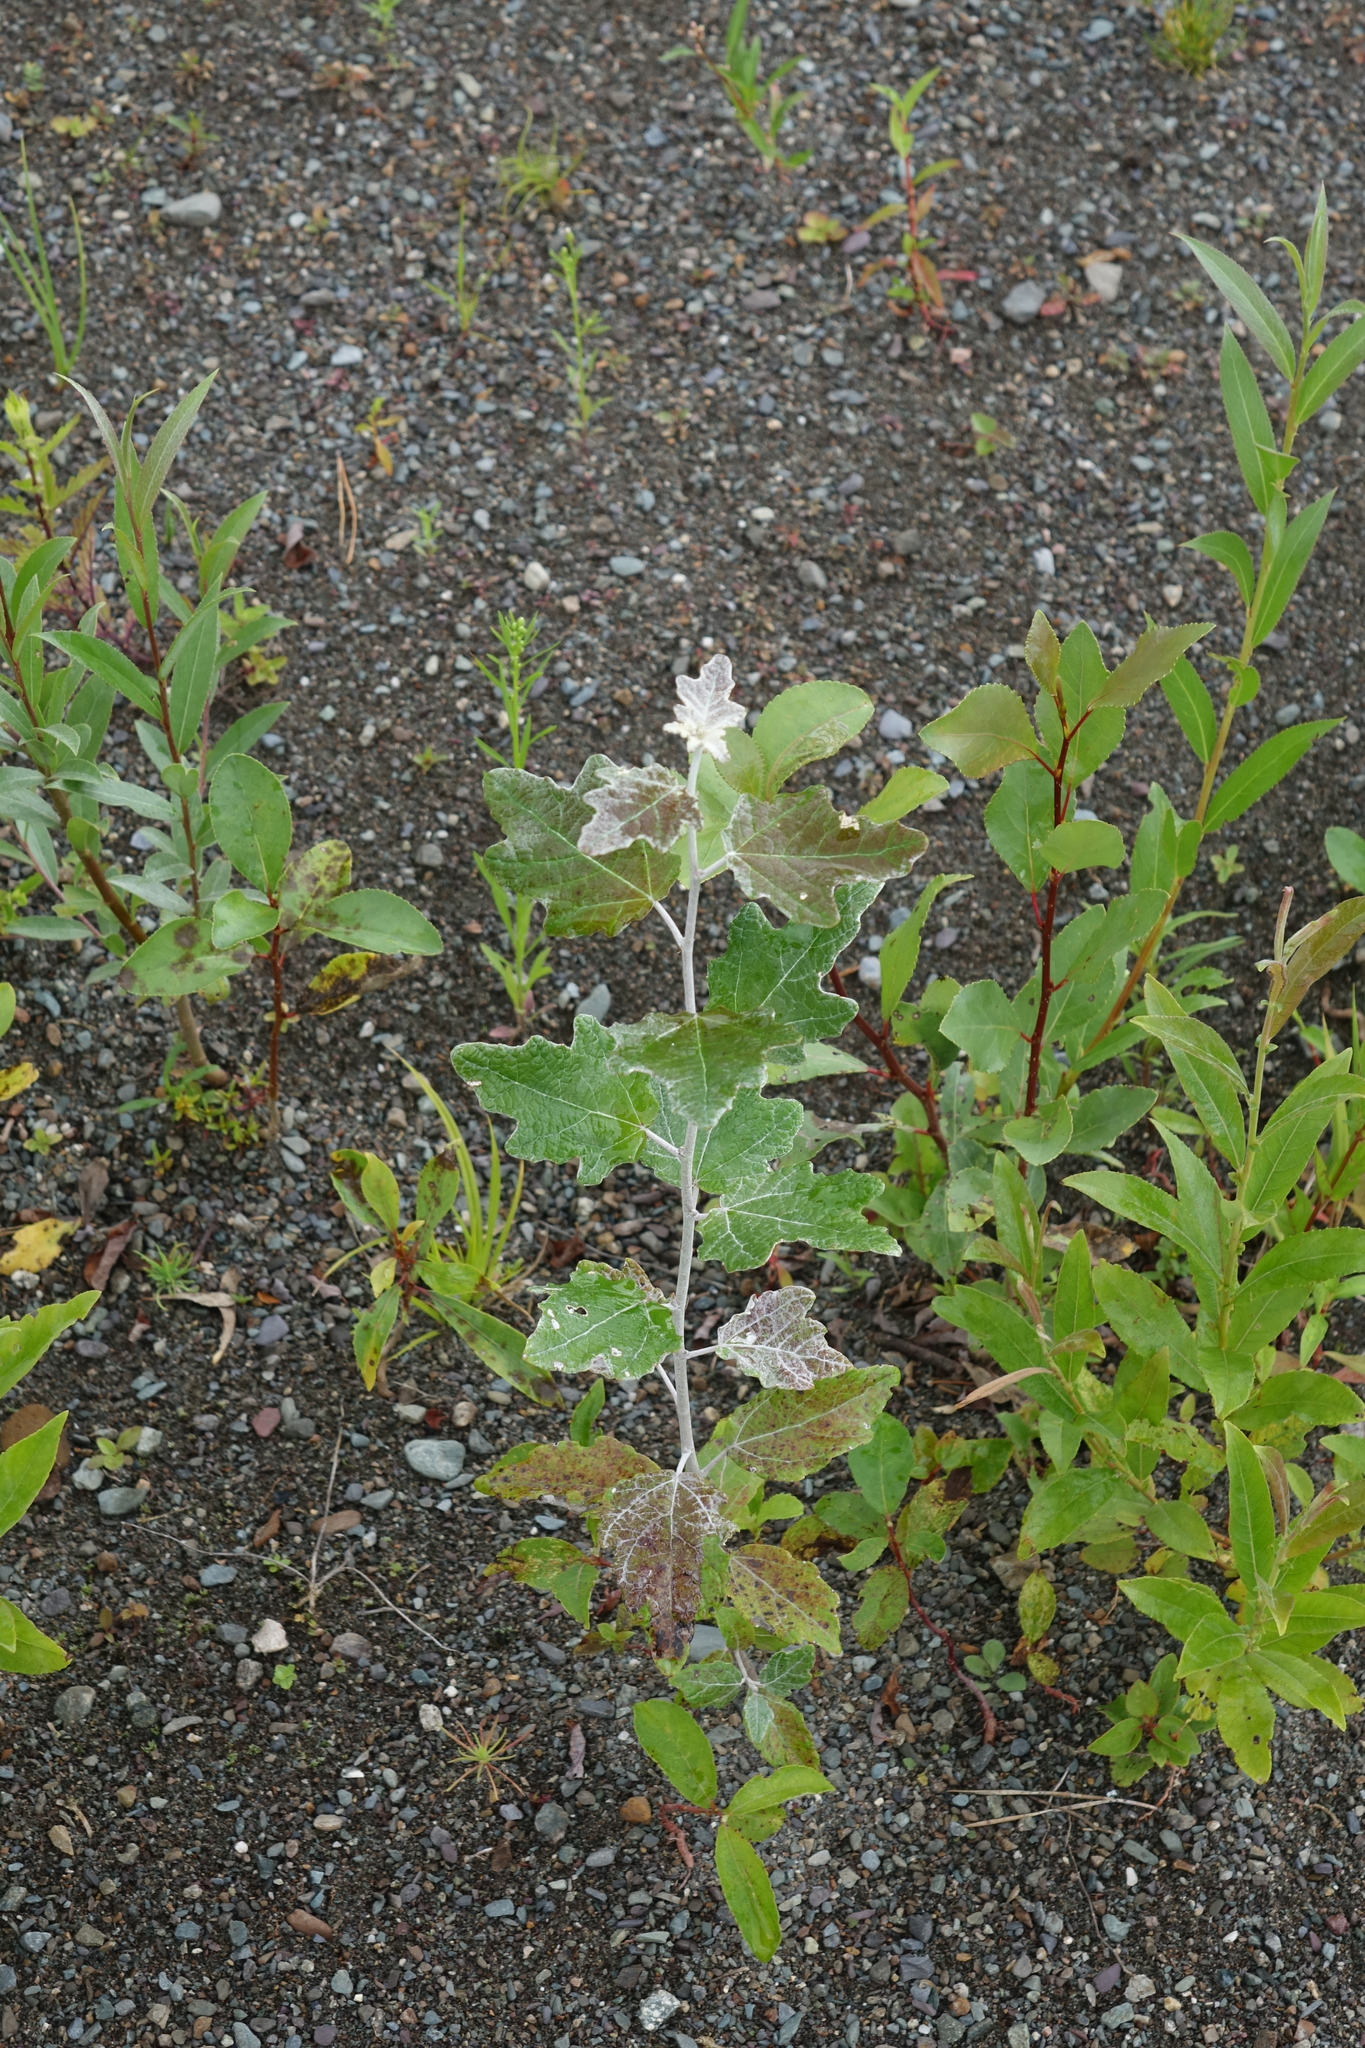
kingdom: Plantae
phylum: Tracheophyta
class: Magnoliopsida
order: Malpighiales
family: Salicaceae
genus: Populus
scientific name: Populus alba
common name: White poplar
